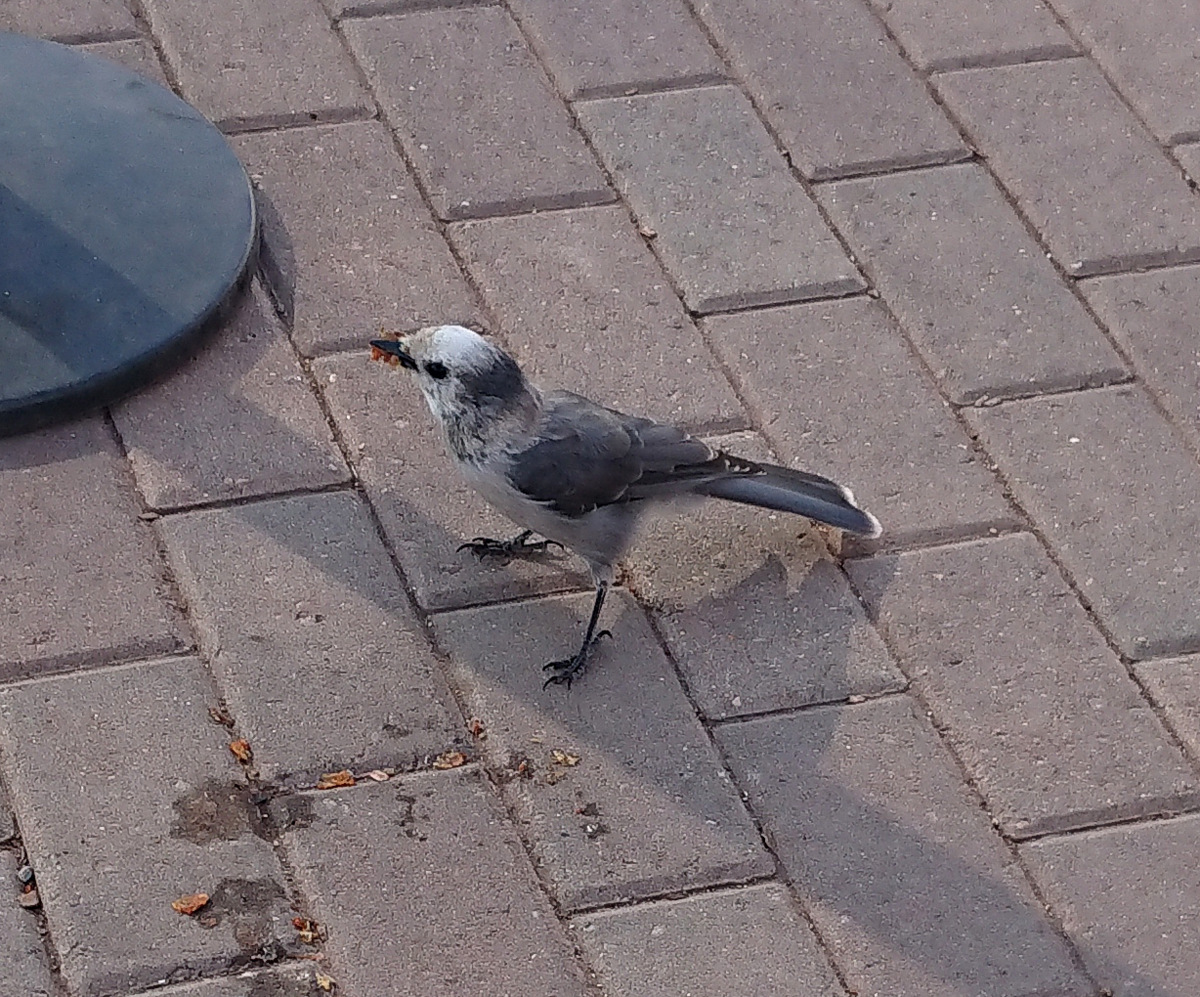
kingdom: Animalia
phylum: Chordata
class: Aves
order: Passeriformes
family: Corvidae
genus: Perisoreus
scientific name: Perisoreus canadensis
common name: Gray jay
